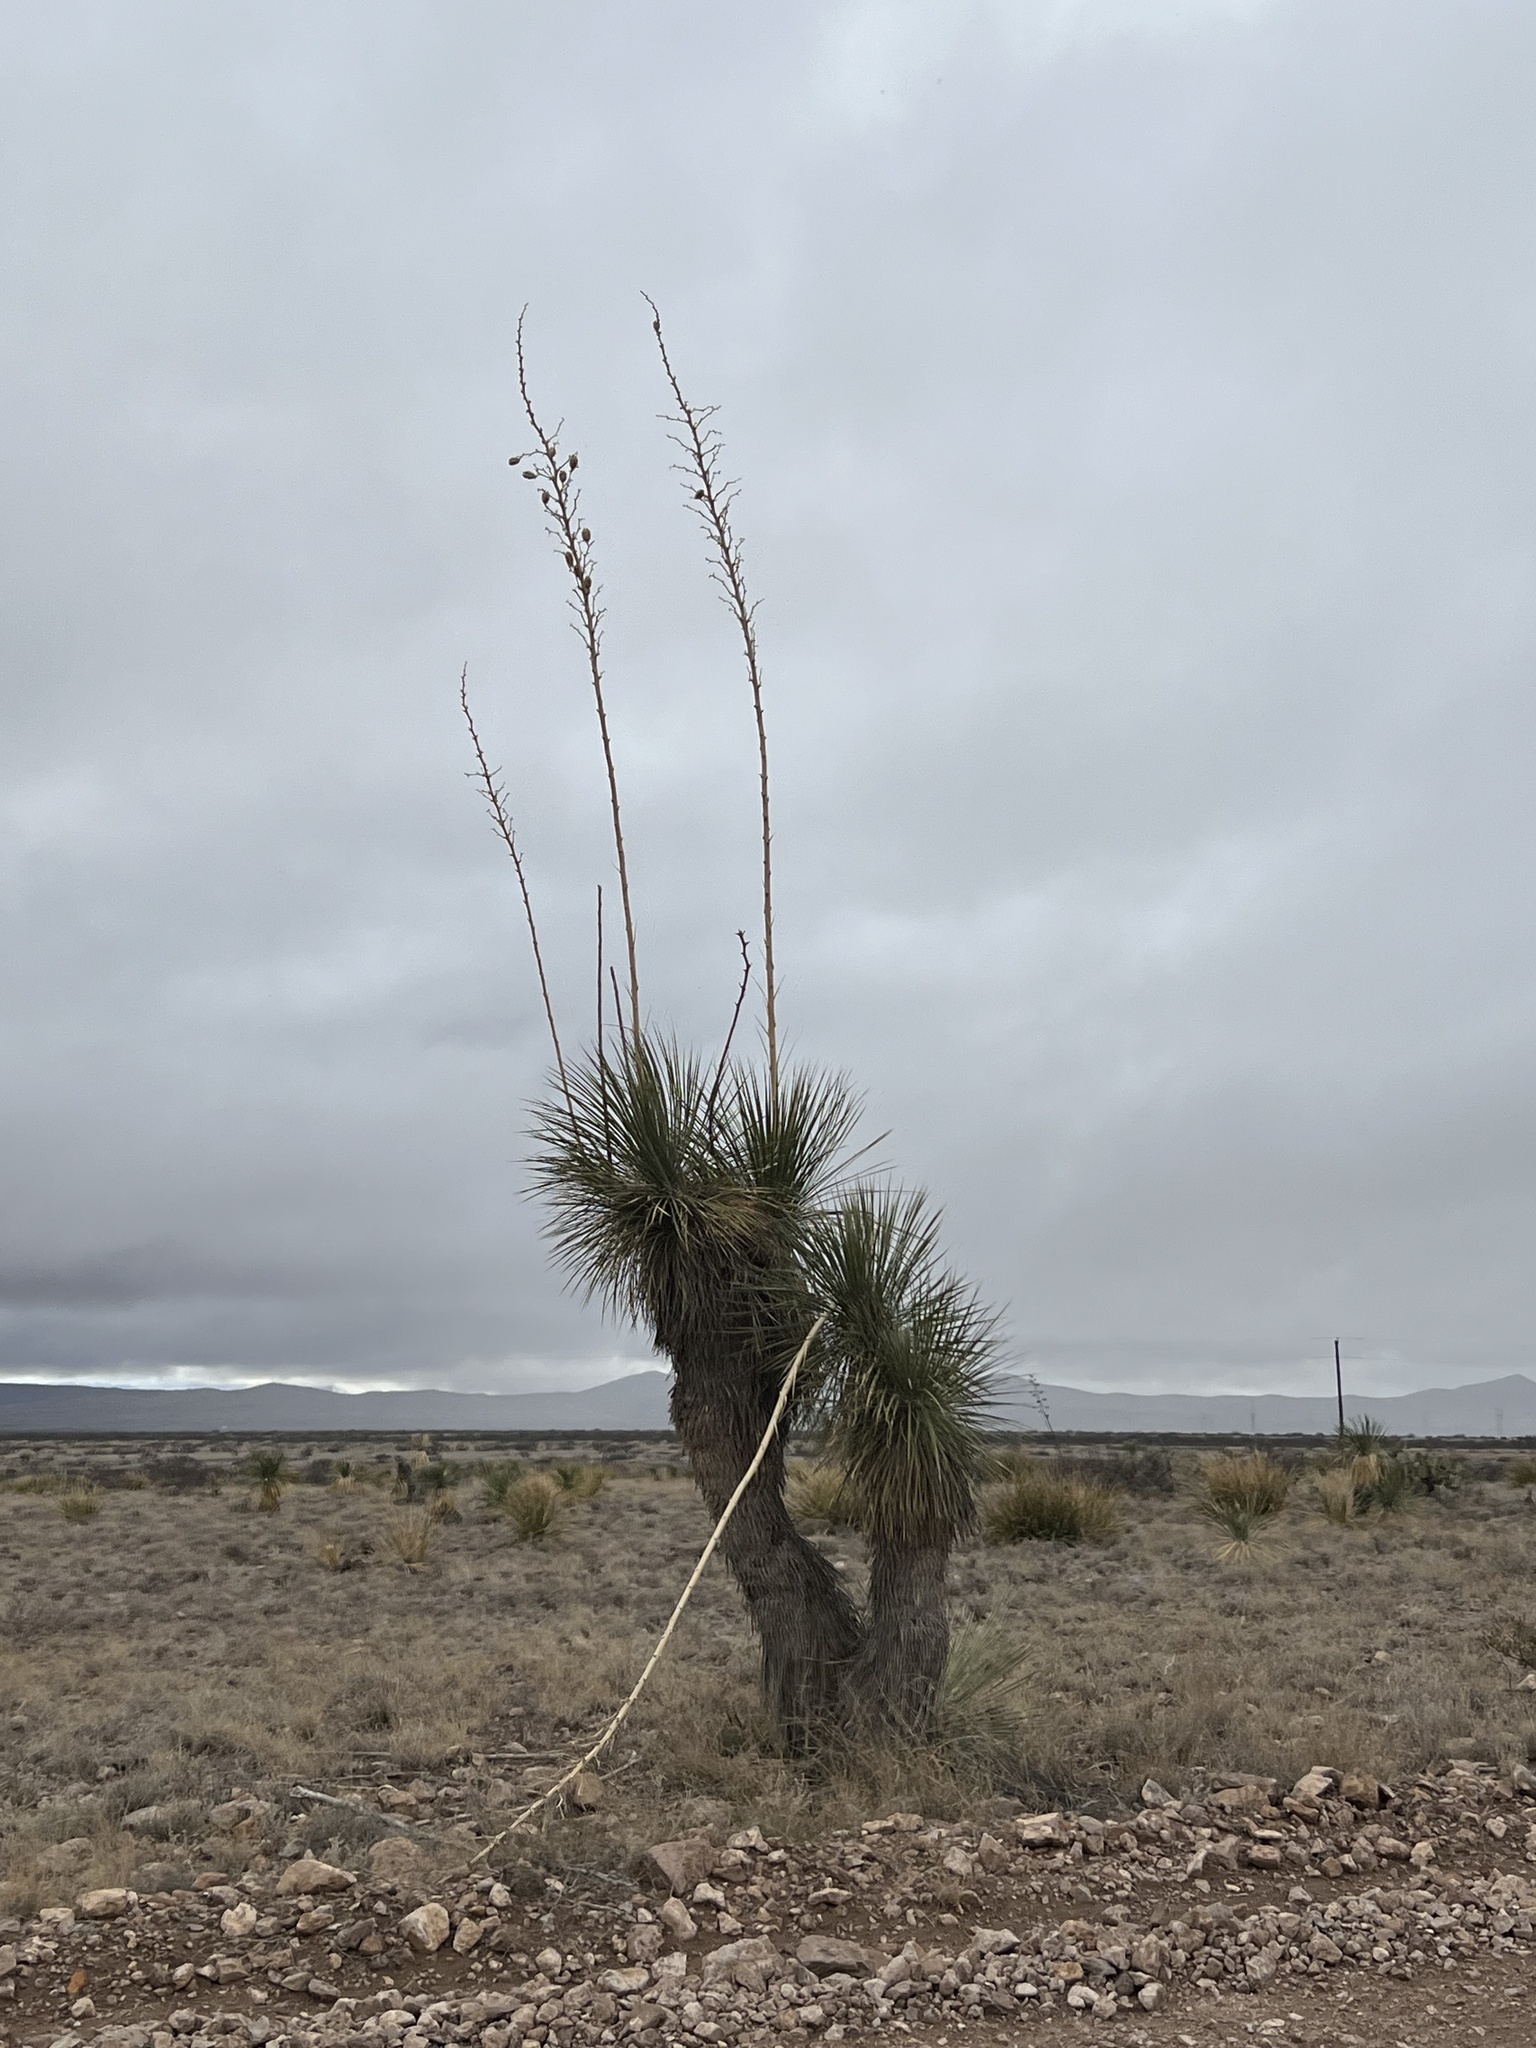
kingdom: Plantae
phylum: Tracheophyta
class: Liliopsida
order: Asparagales
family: Asparagaceae
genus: Yucca
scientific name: Yucca elata
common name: Palmella
